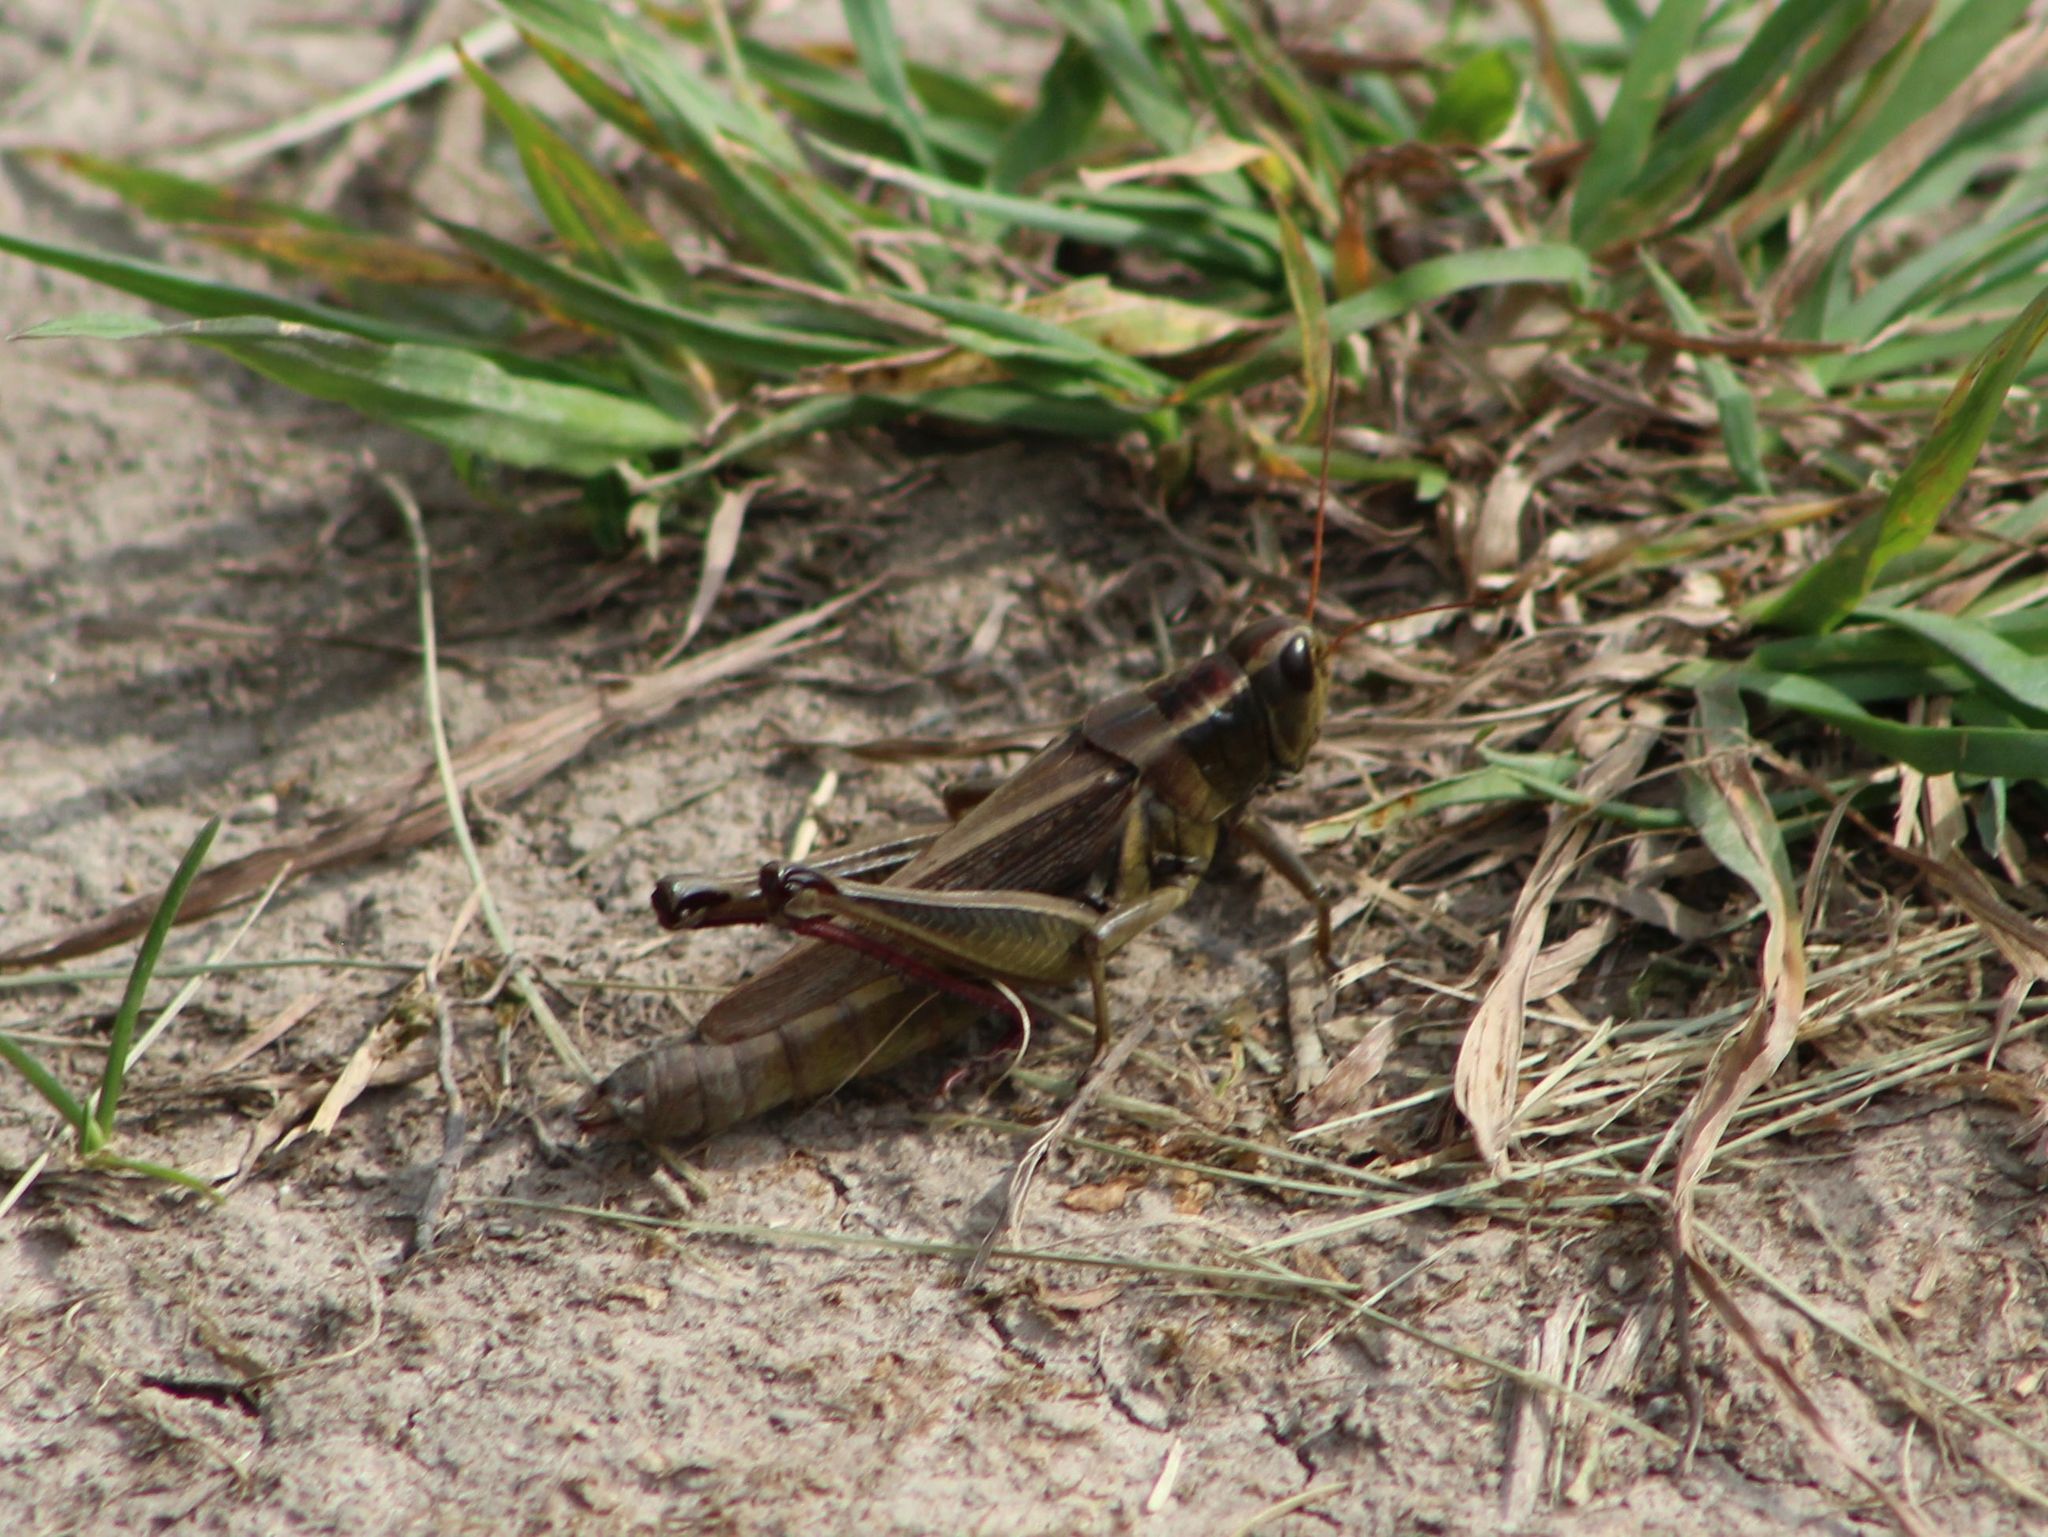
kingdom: Animalia
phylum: Arthropoda
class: Insecta
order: Orthoptera
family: Acrididae
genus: Melanoplus
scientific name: Melanoplus bivittatus
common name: Two-striped grasshopper
